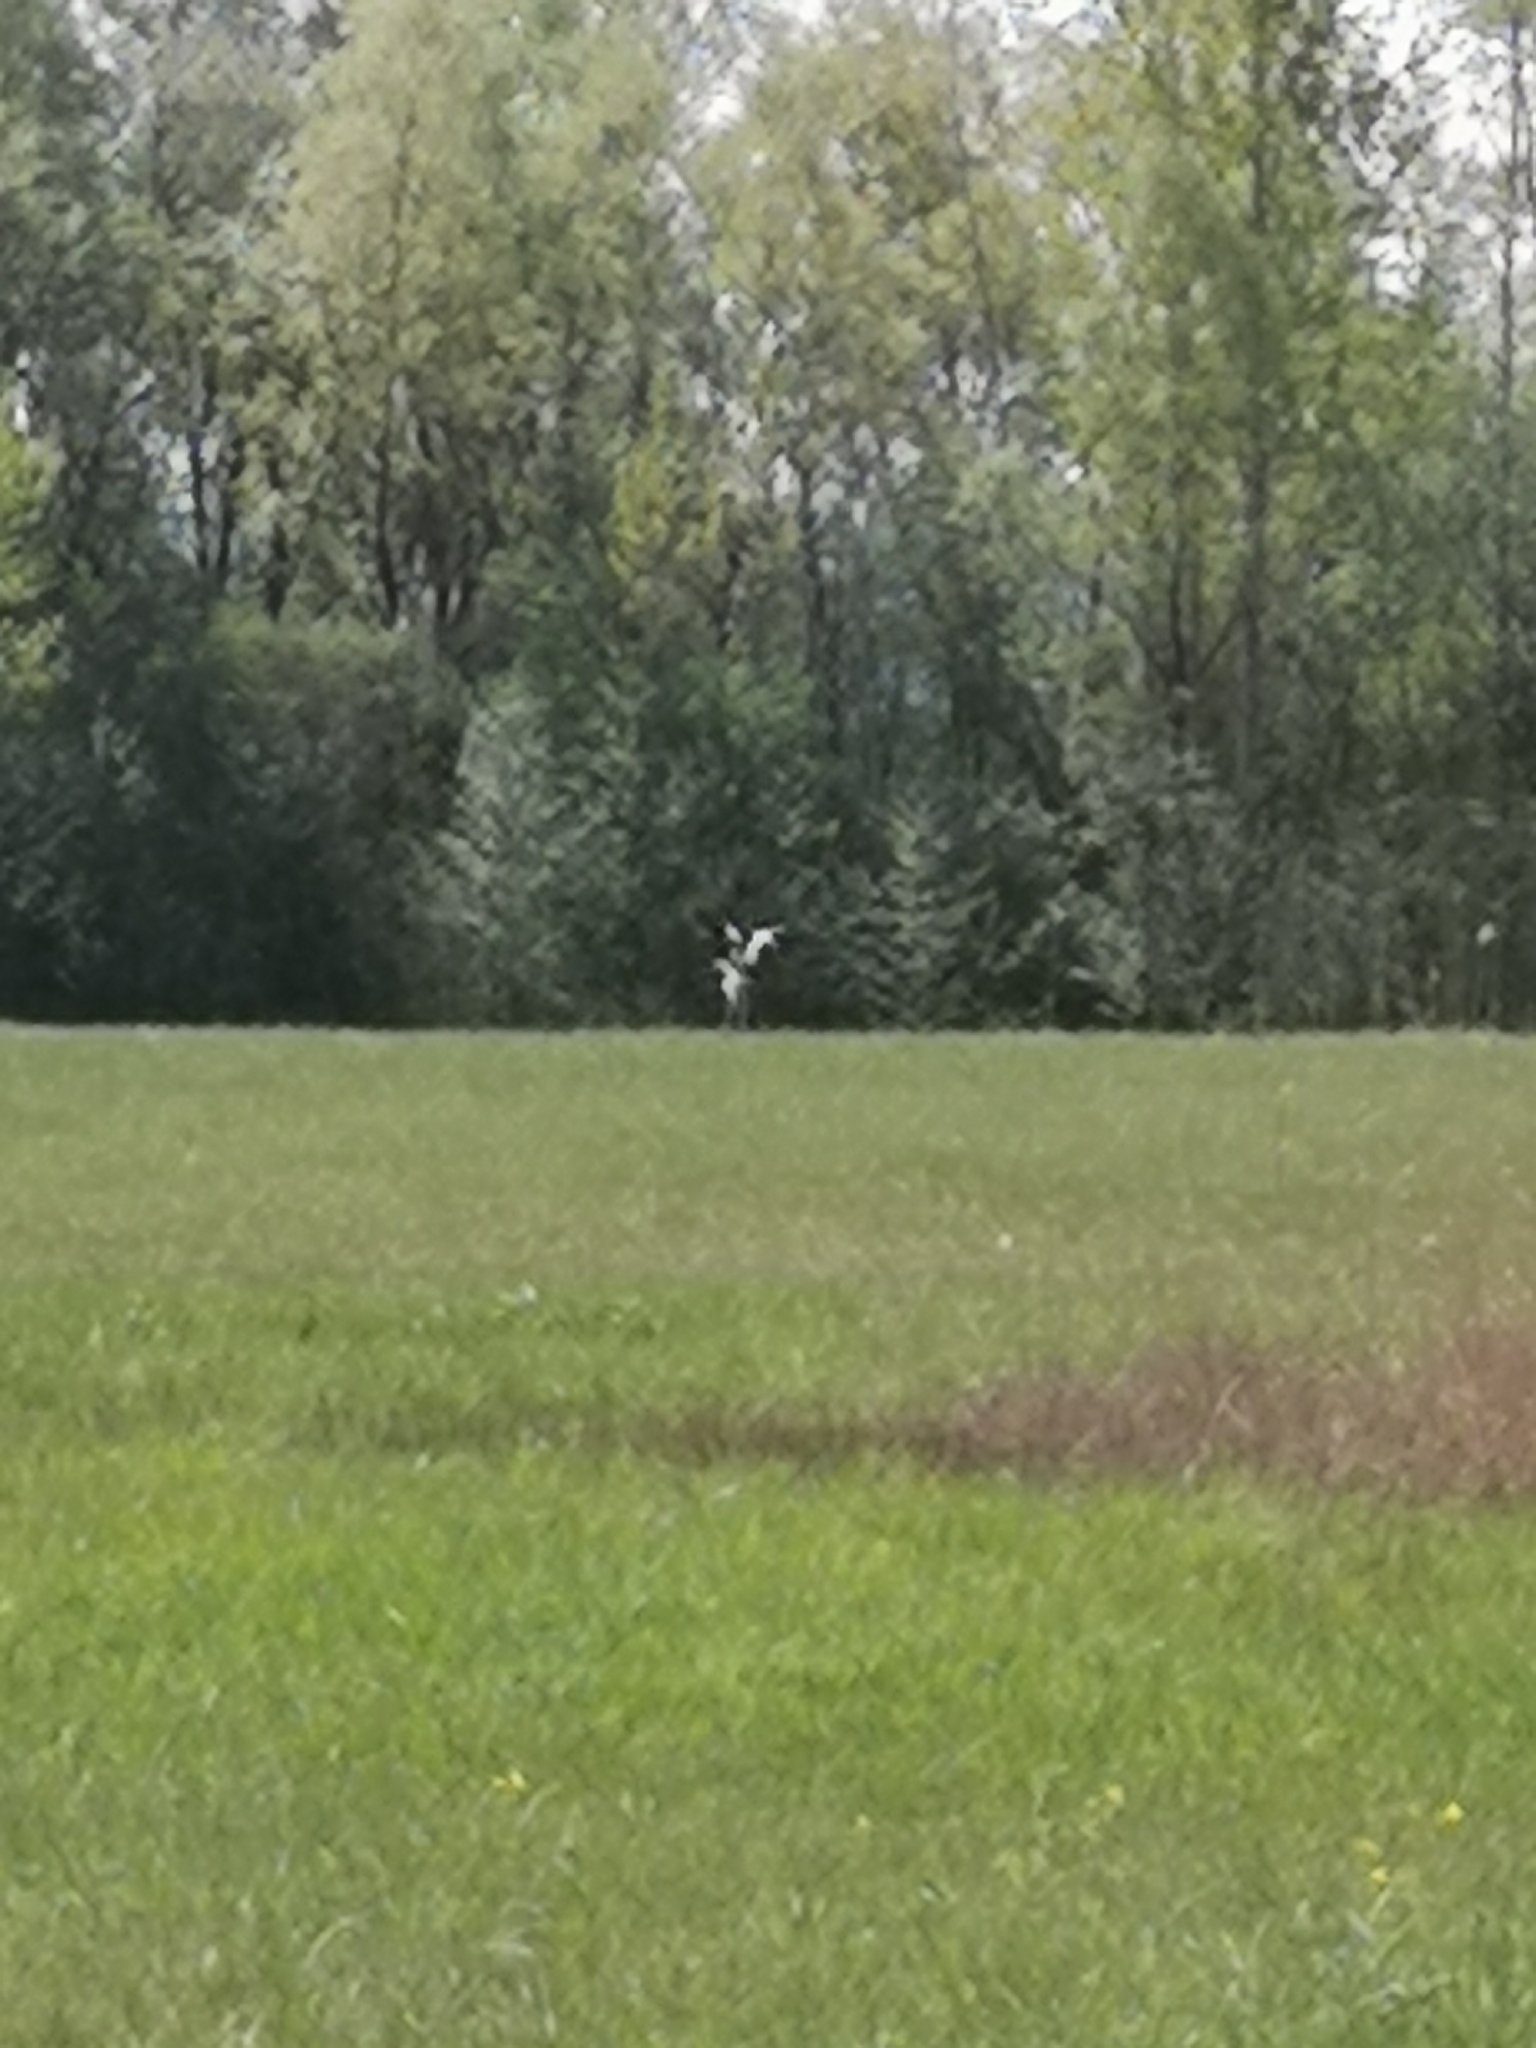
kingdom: Animalia
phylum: Chordata
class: Aves
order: Pelecaniformes
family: Ardeidae
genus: Ardea
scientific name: Ardea cinerea
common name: Grey heron
